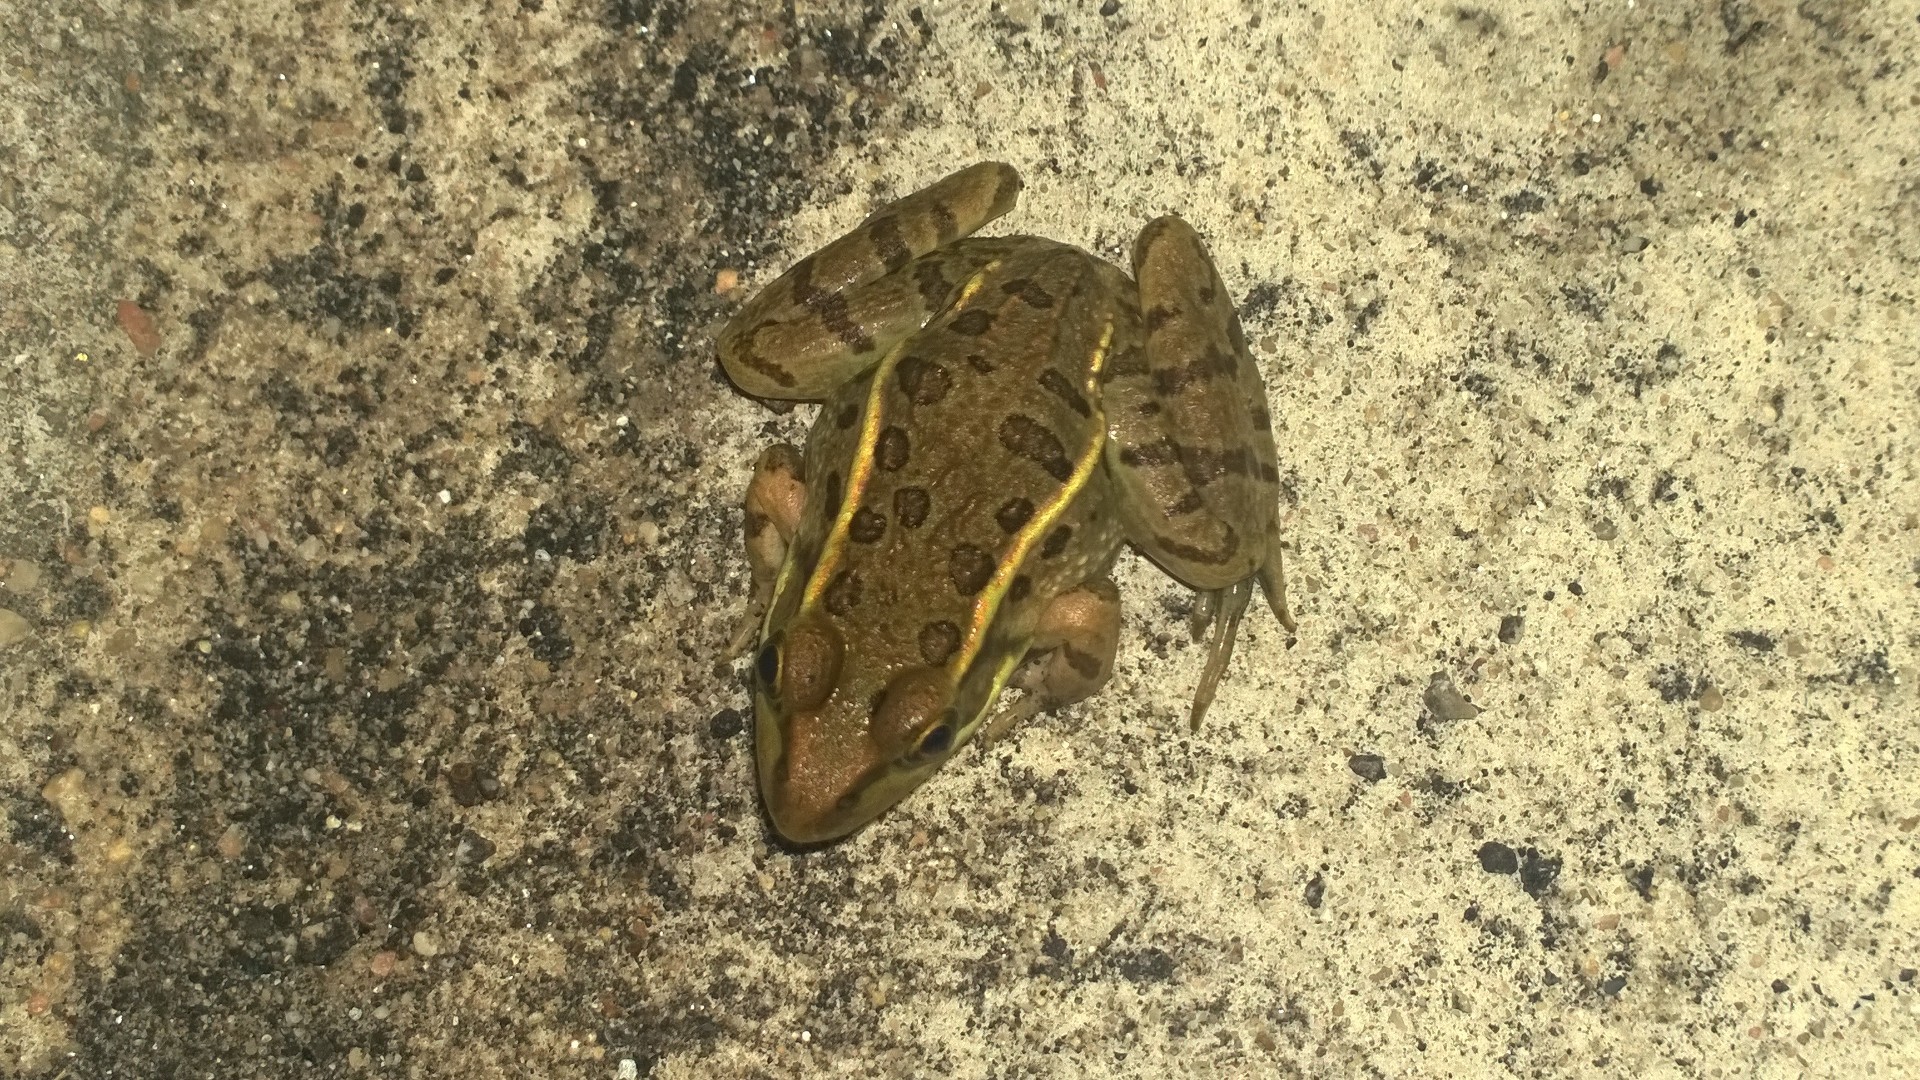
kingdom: Animalia
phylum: Chordata
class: Amphibia
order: Anura
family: Ranidae
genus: Lithobates
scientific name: Lithobates berlandieri
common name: Rio grande leopard frog
